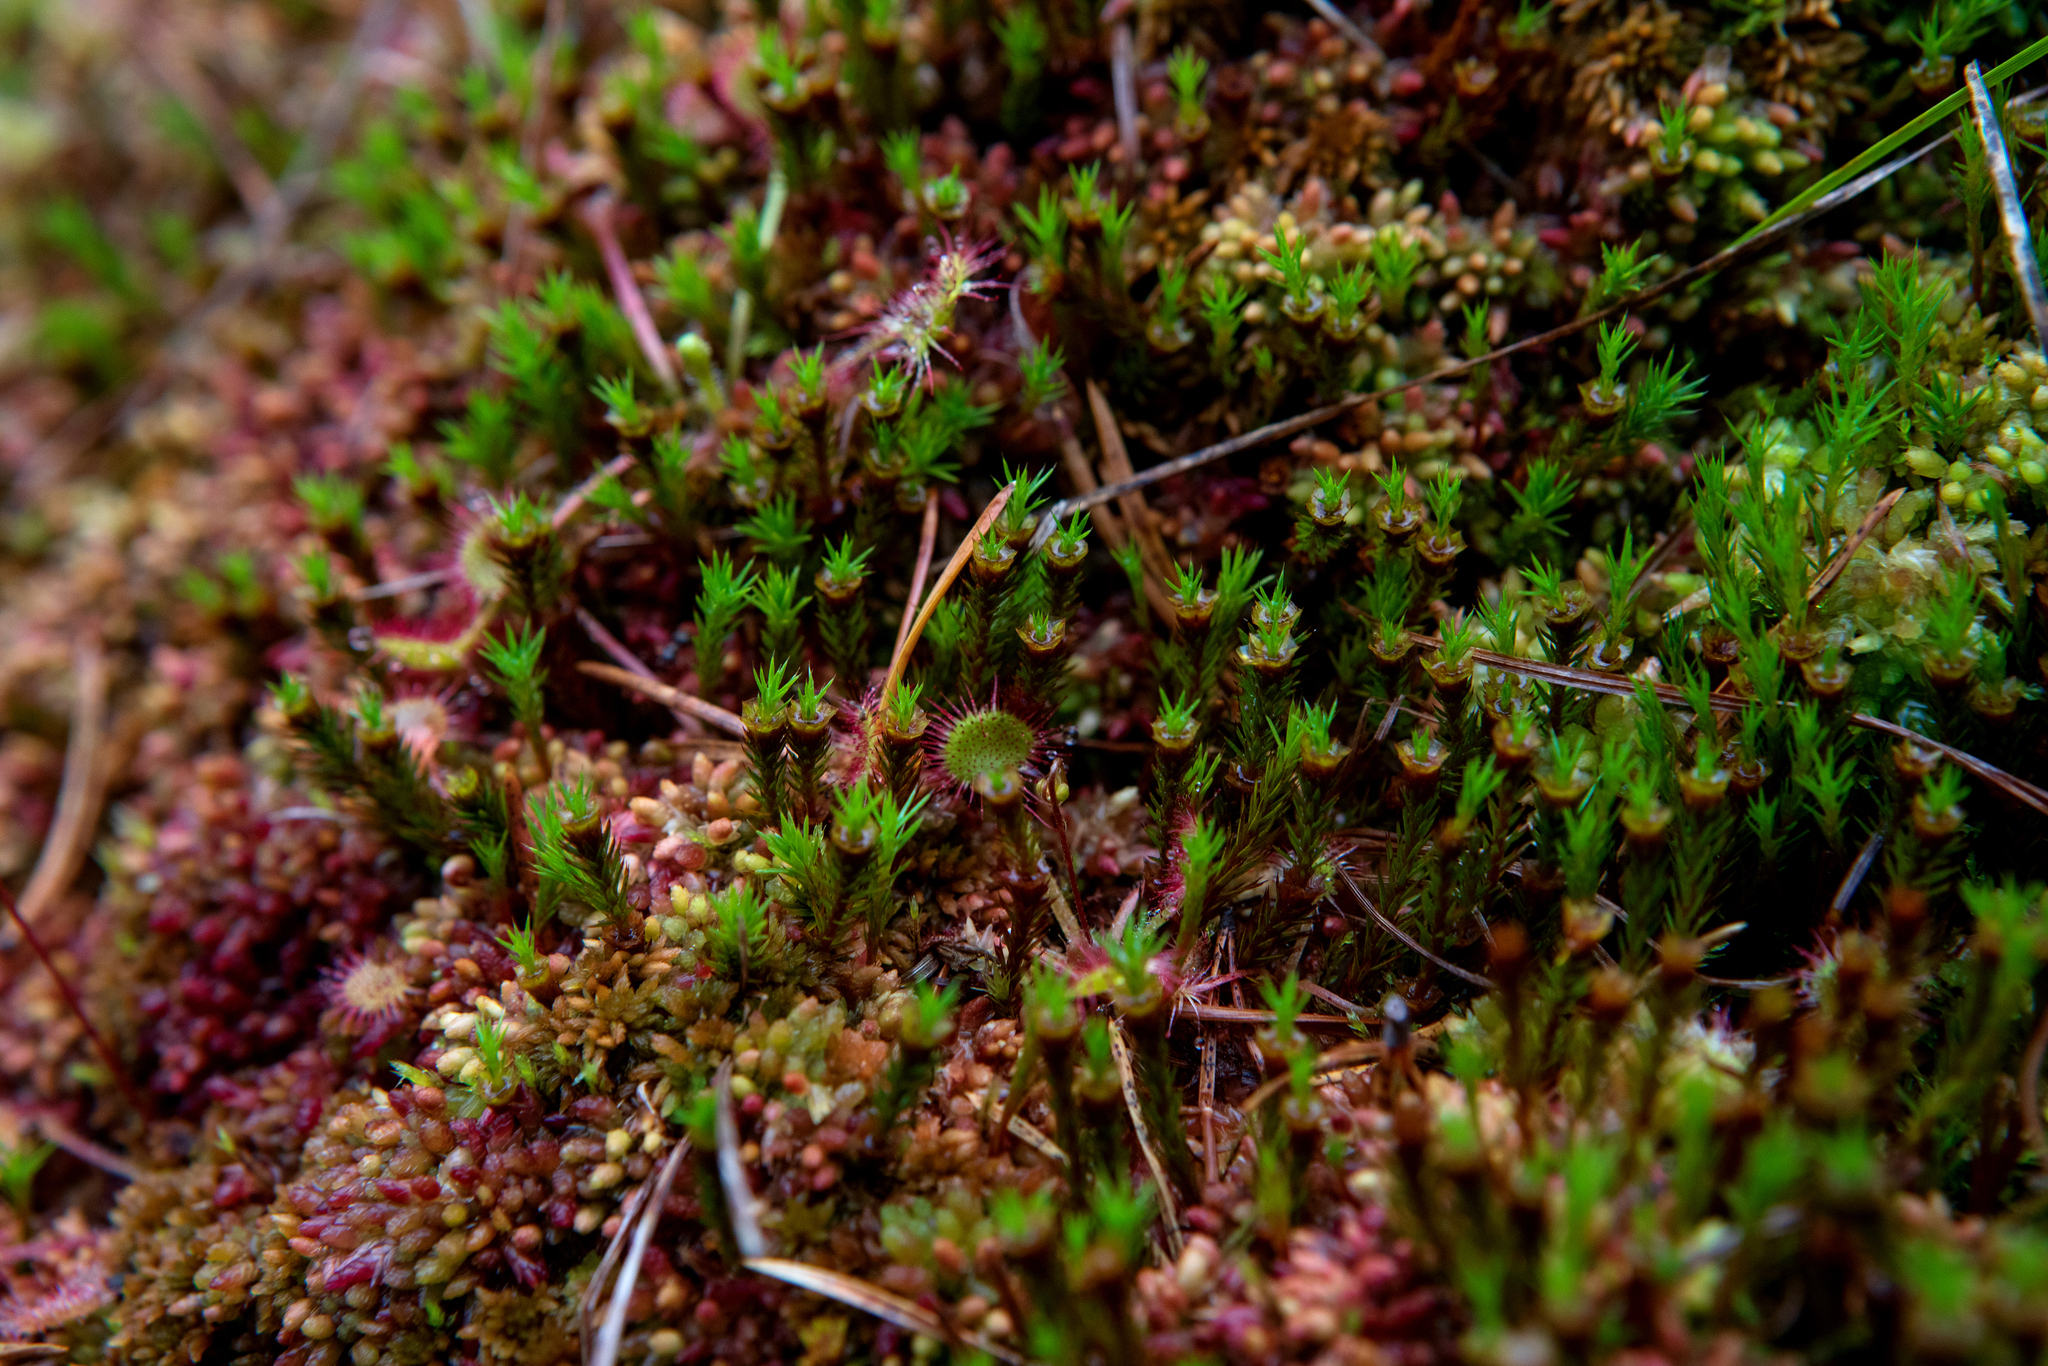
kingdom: Plantae
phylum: Bryophyta
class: Polytrichopsida
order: Polytrichales
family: Polytrichaceae
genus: Polytrichum
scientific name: Polytrichum strictum
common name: Bog haircap moss
